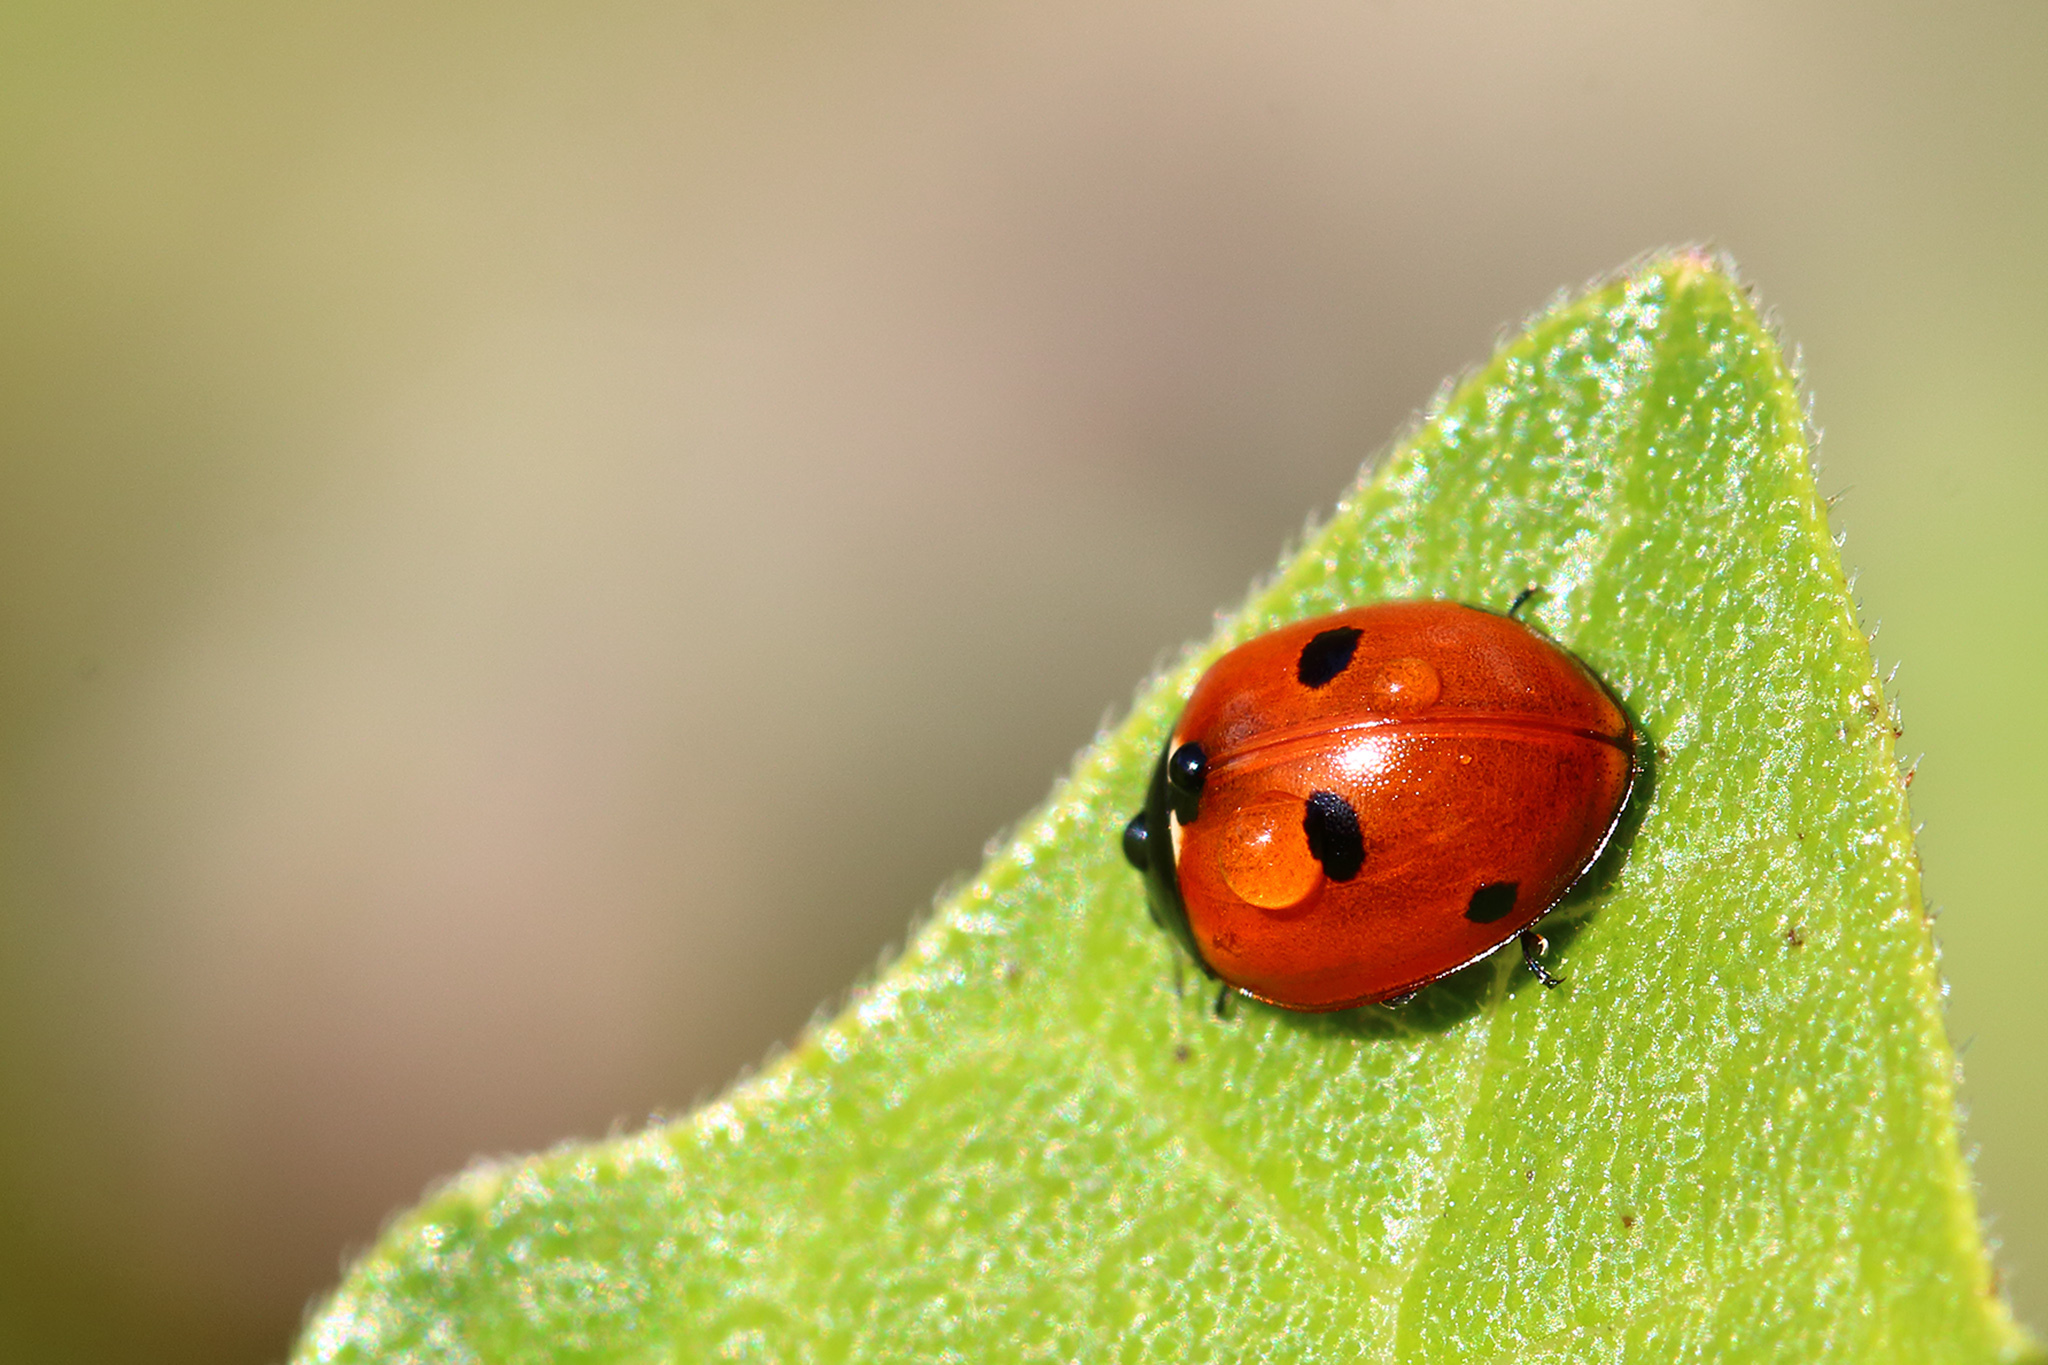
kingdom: Animalia
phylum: Arthropoda
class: Insecta
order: Coleoptera
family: Coccinellidae
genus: Coccinella
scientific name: Coccinella quinquepunctata
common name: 5-spot ladybird
